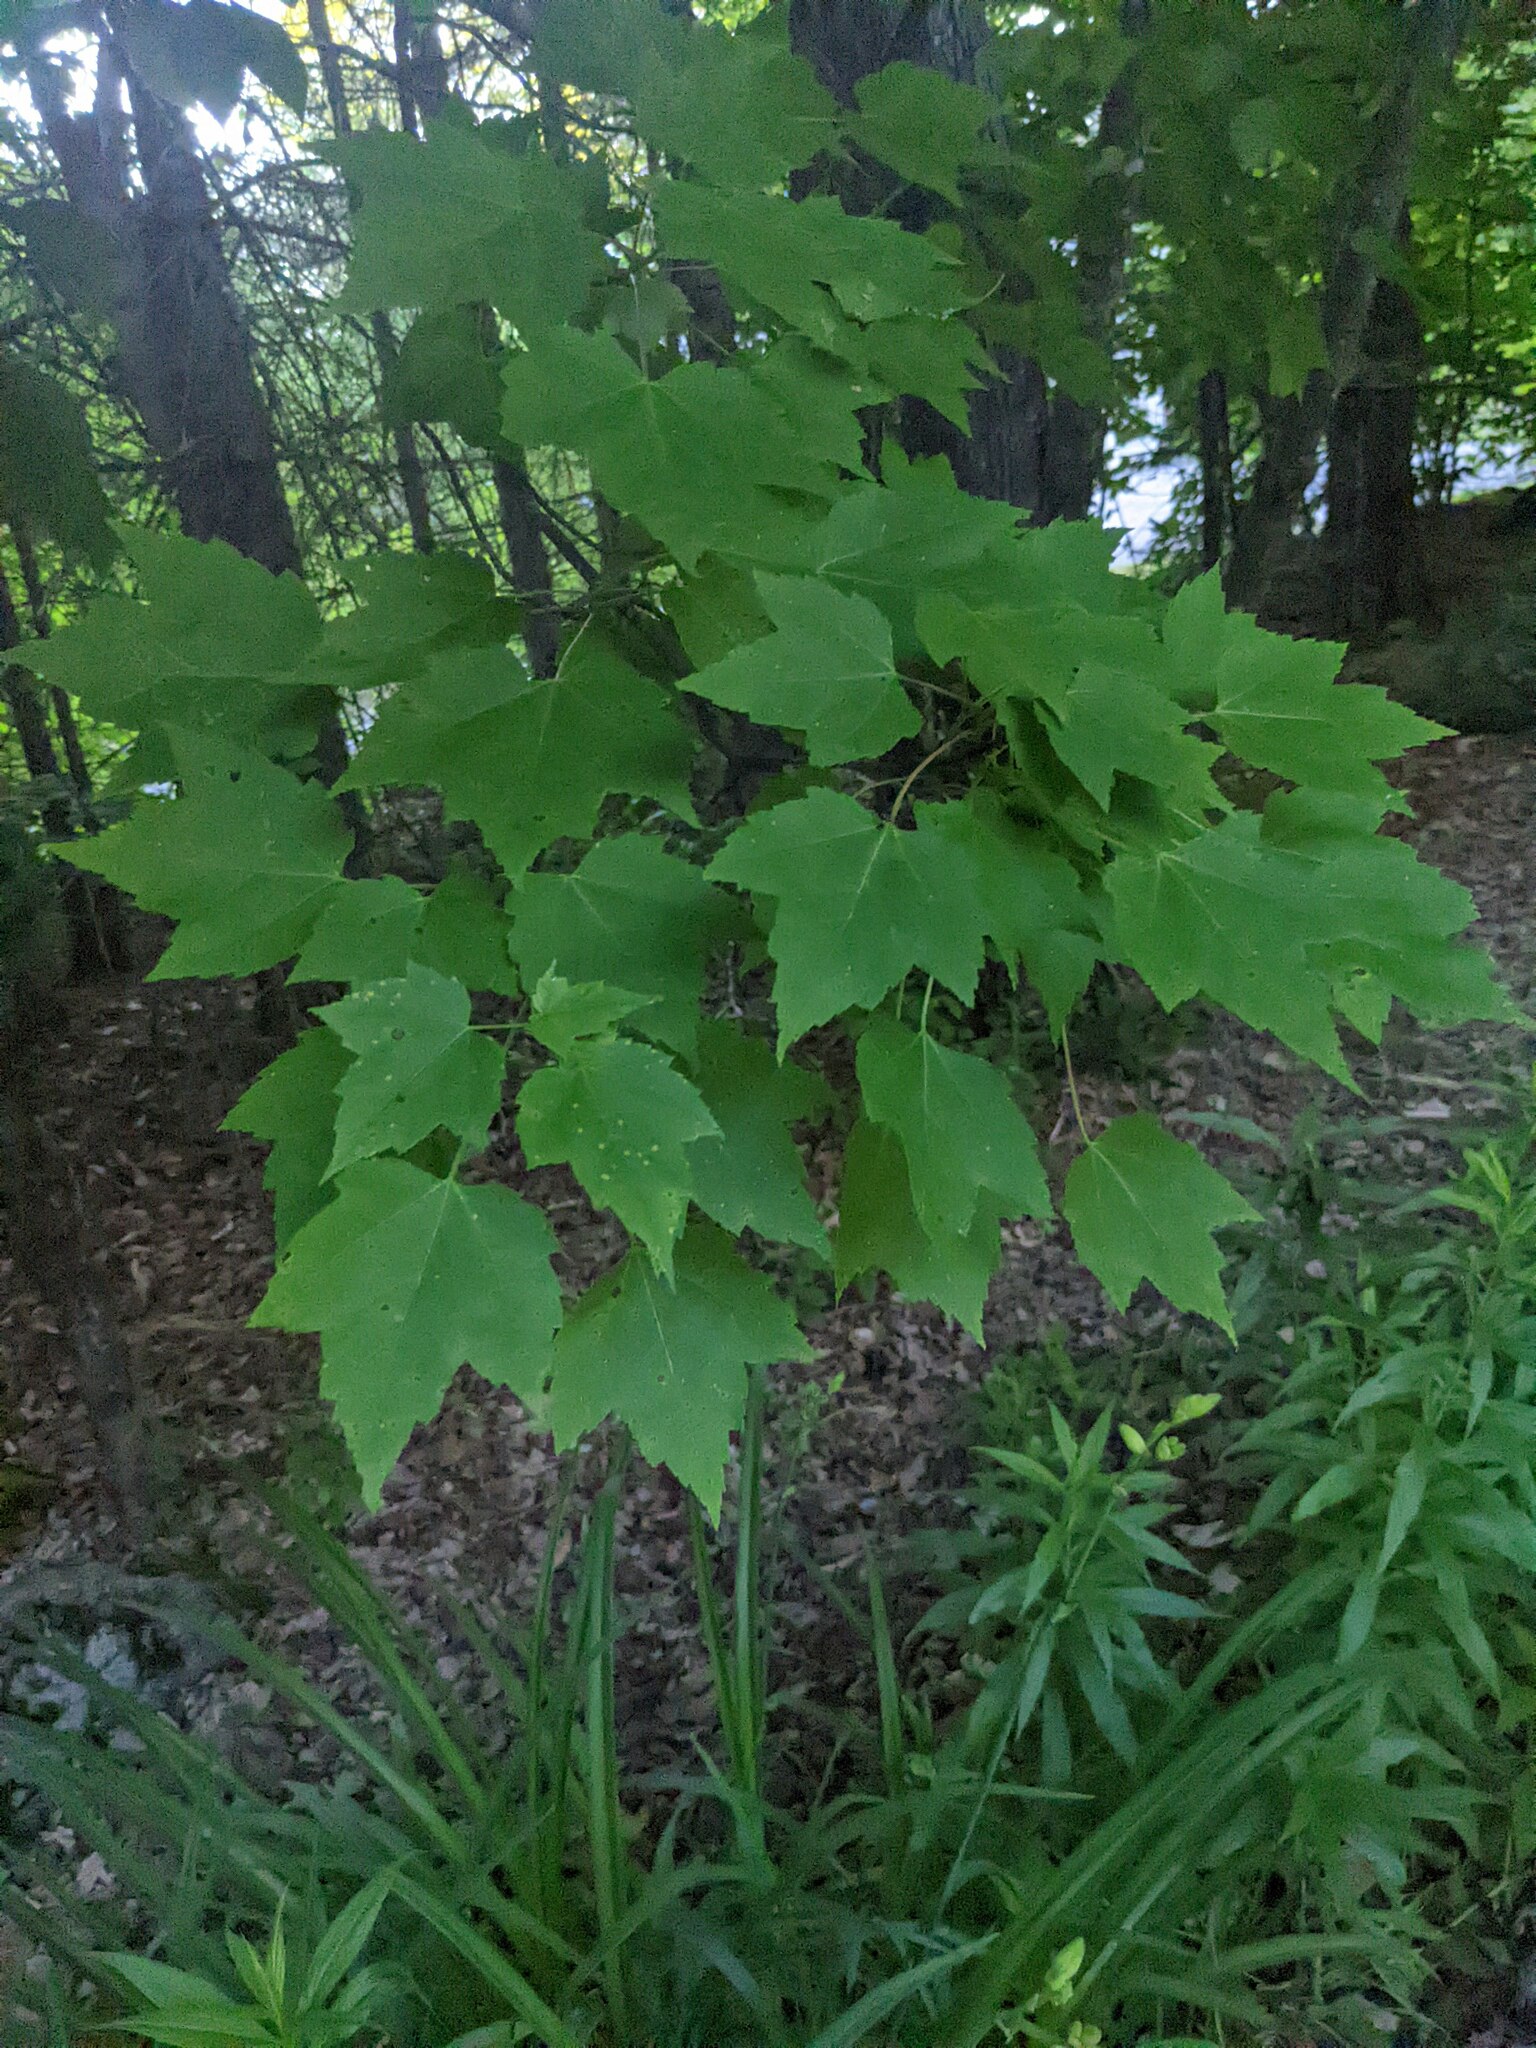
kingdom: Plantae
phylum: Tracheophyta
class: Magnoliopsida
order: Sapindales
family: Sapindaceae
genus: Acer
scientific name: Acer rubrum
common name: Red maple
